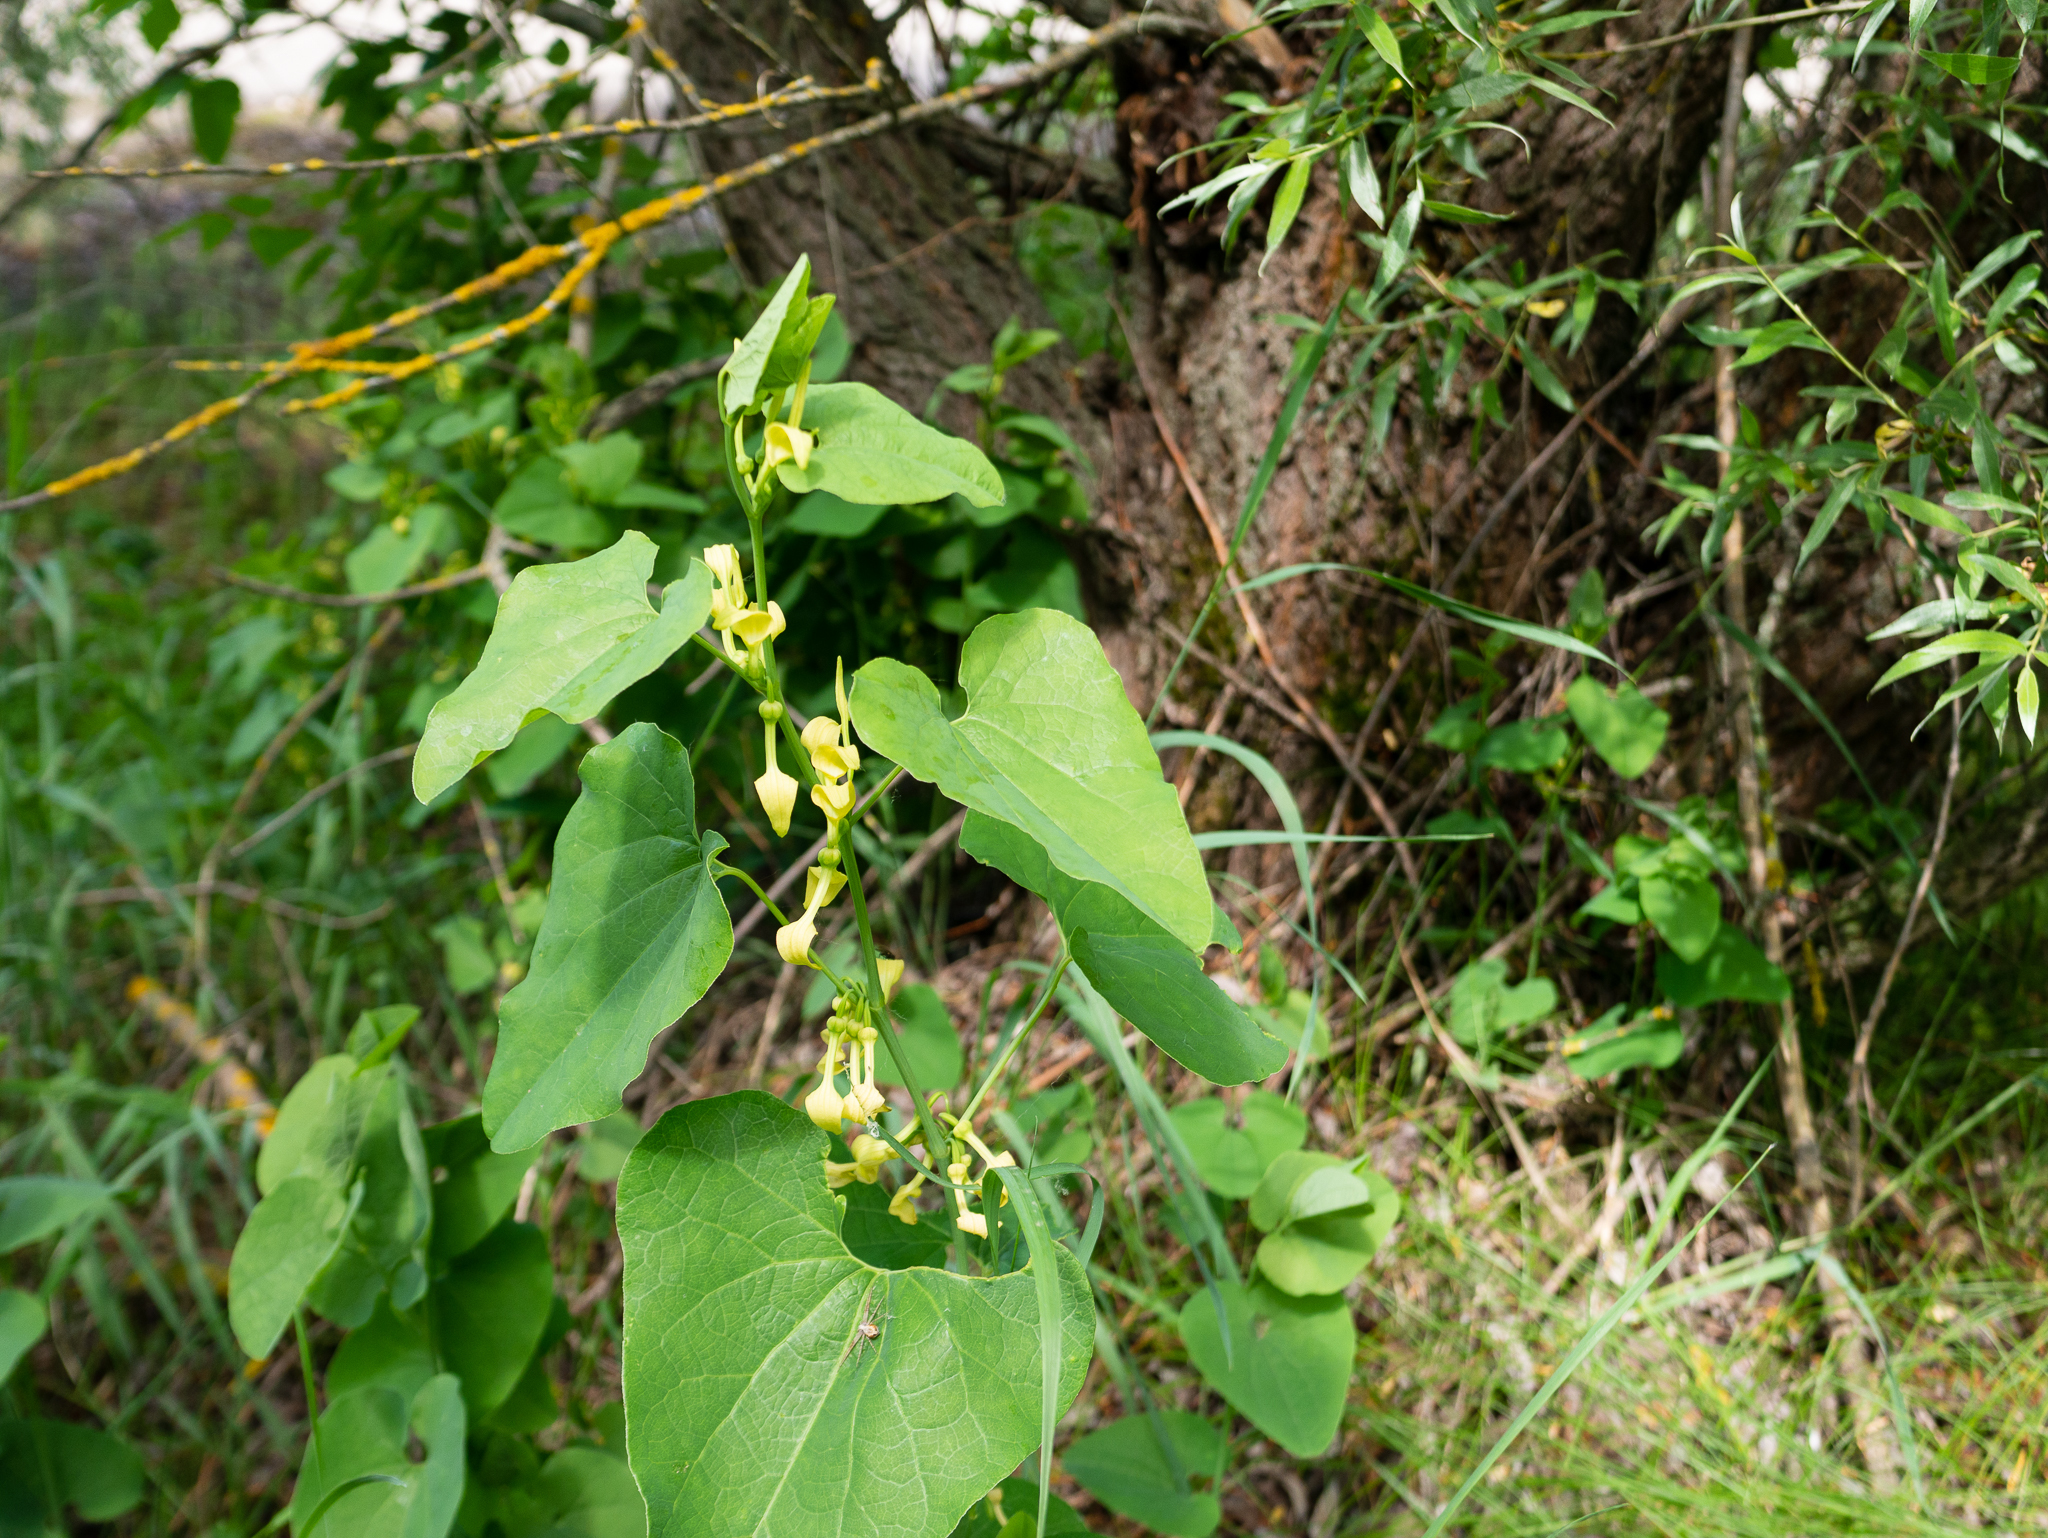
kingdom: Plantae
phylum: Tracheophyta
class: Magnoliopsida
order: Piperales
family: Aristolochiaceae
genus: Aristolochia
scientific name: Aristolochia clematitis
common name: Birthwort
